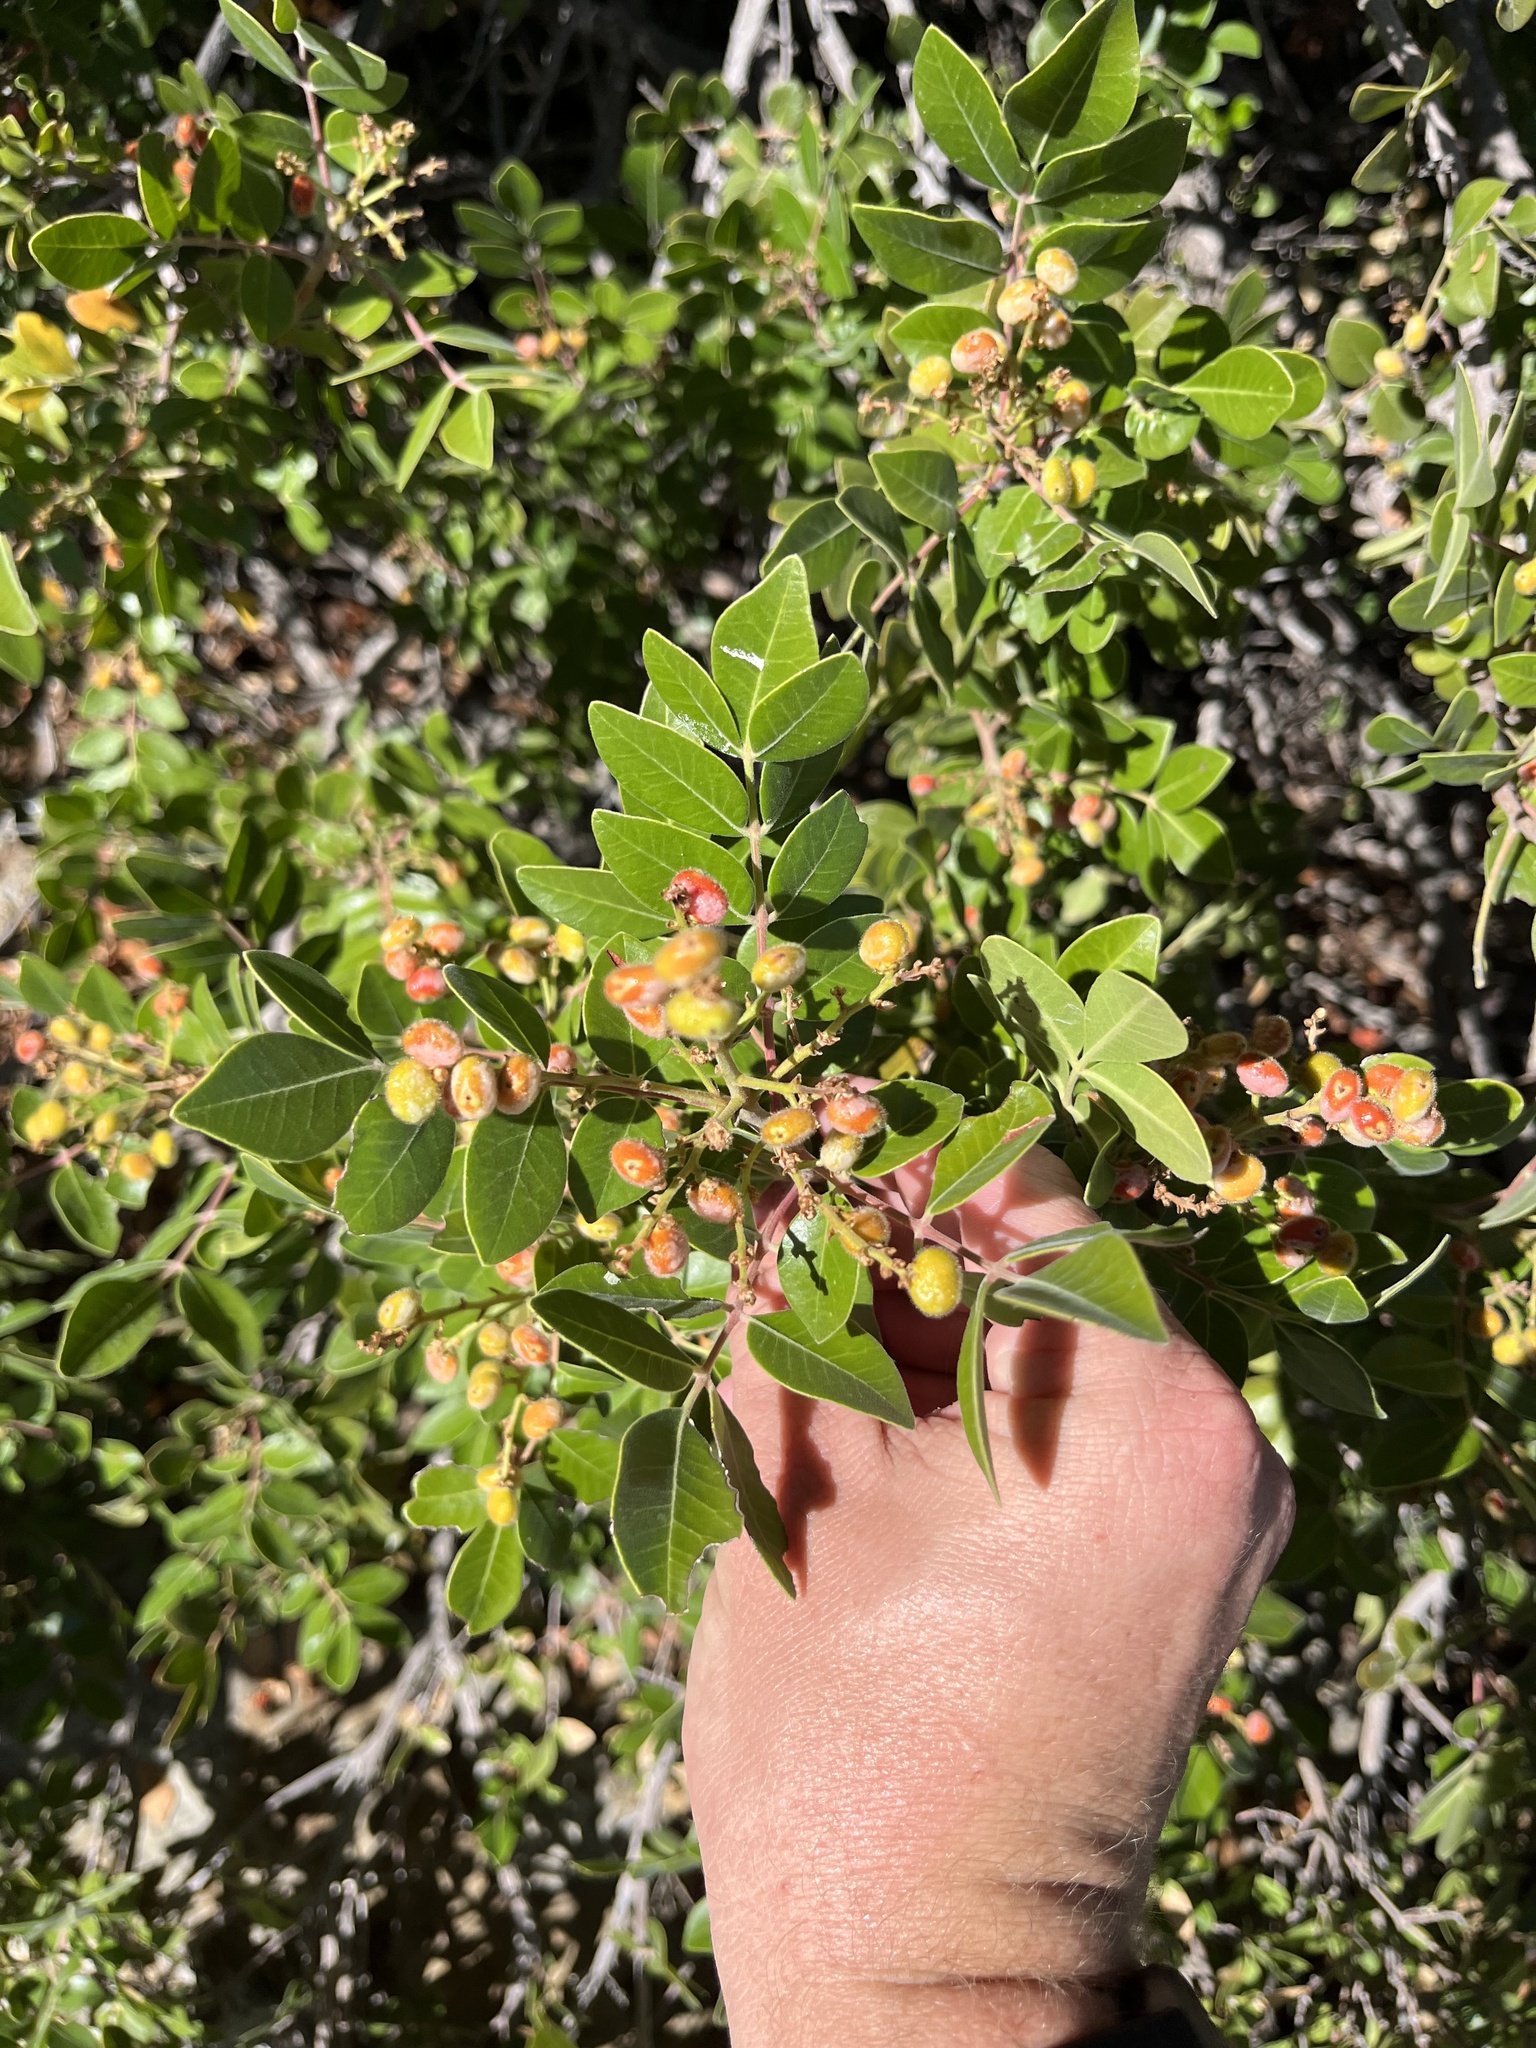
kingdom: Plantae
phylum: Tracheophyta
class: Magnoliopsida
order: Sapindales
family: Anacardiaceae
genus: Rhus
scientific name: Rhus virens
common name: Evergreen sumac
